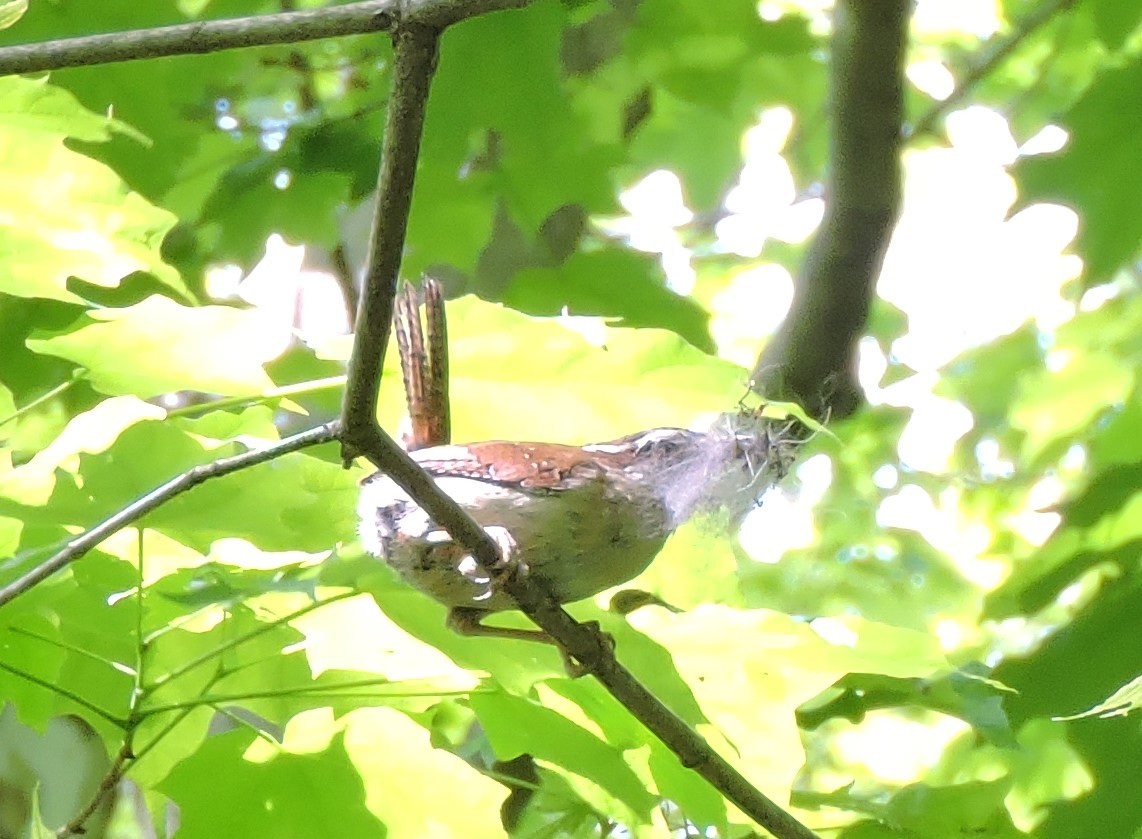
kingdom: Animalia
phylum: Chordata
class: Aves
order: Passeriformes
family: Troglodytidae
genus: Thryothorus
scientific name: Thryothorus ludovicianus
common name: Carolina wren
